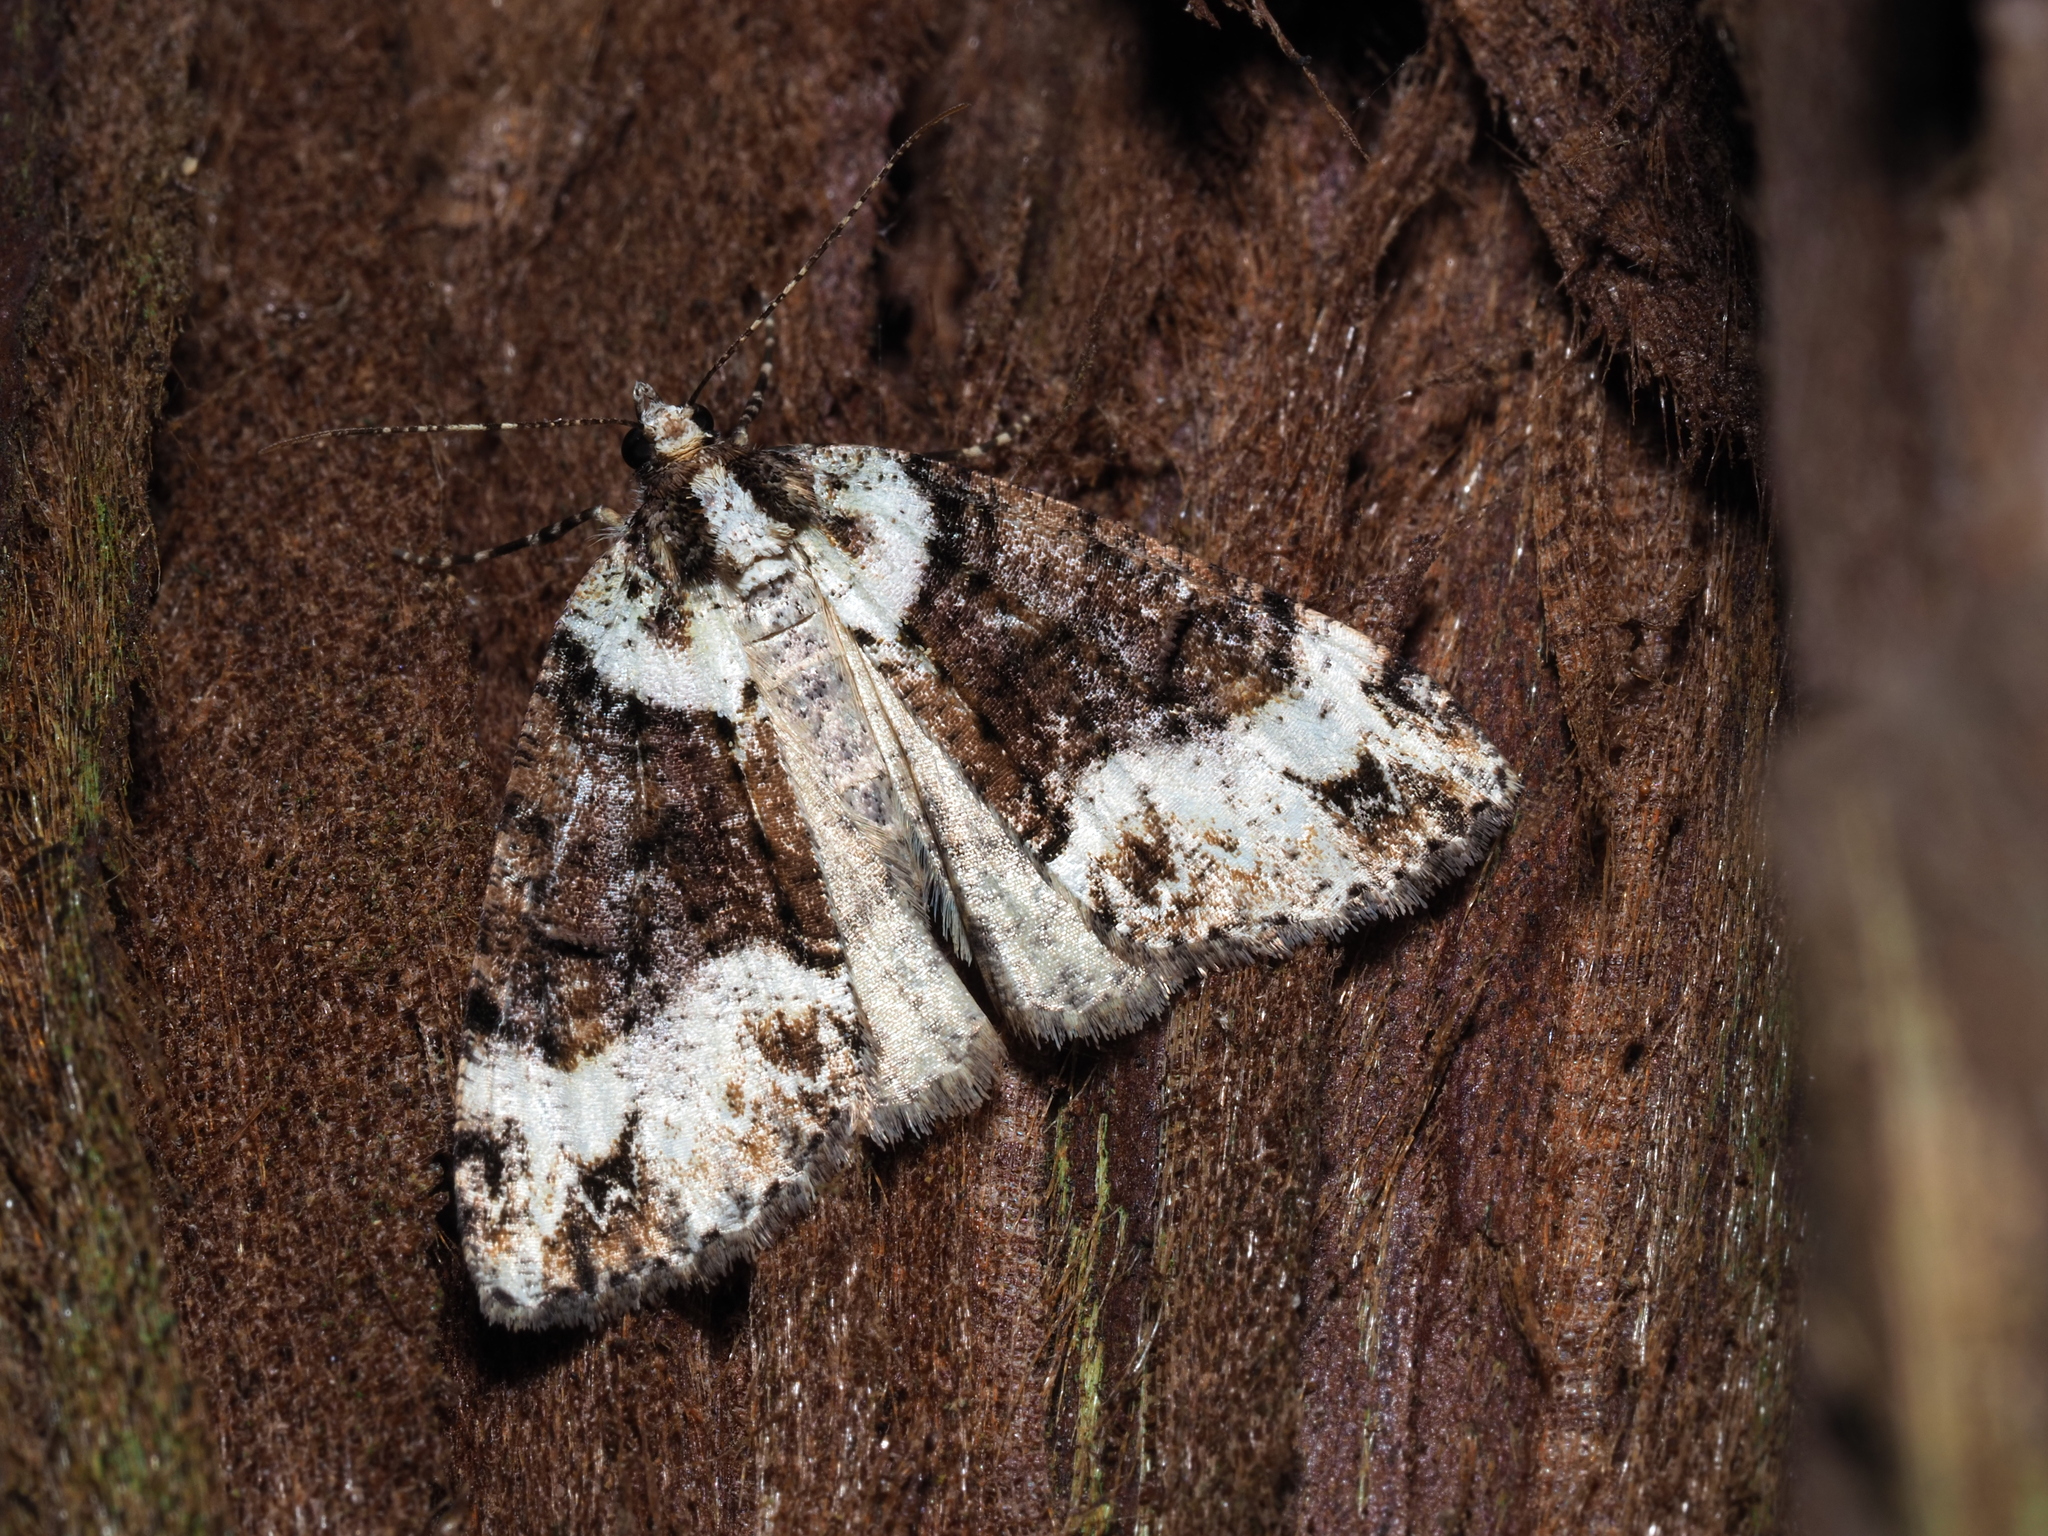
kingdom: Animalia
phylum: Arthropoda
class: Insecta
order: Lepidoptera
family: Geometridae
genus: Pseudocoremia
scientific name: Pseudocoremia suavis
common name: Common forest looper
